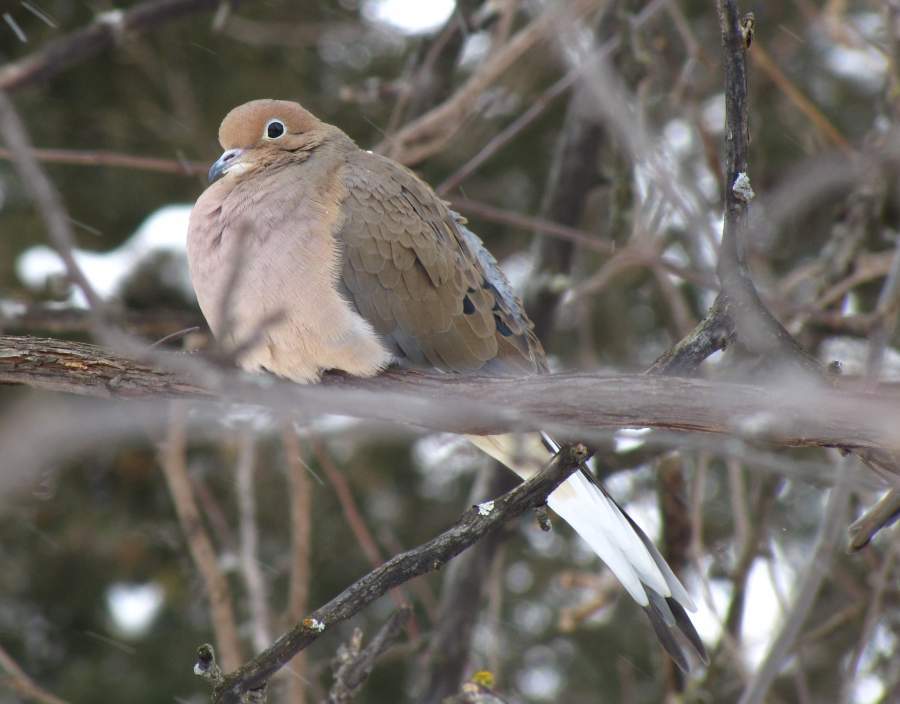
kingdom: Animalia
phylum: Chordata
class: Aves
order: Columbiformes
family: Columbidae
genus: Zenaida
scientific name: Zenaida macroura
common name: Mourning dove
